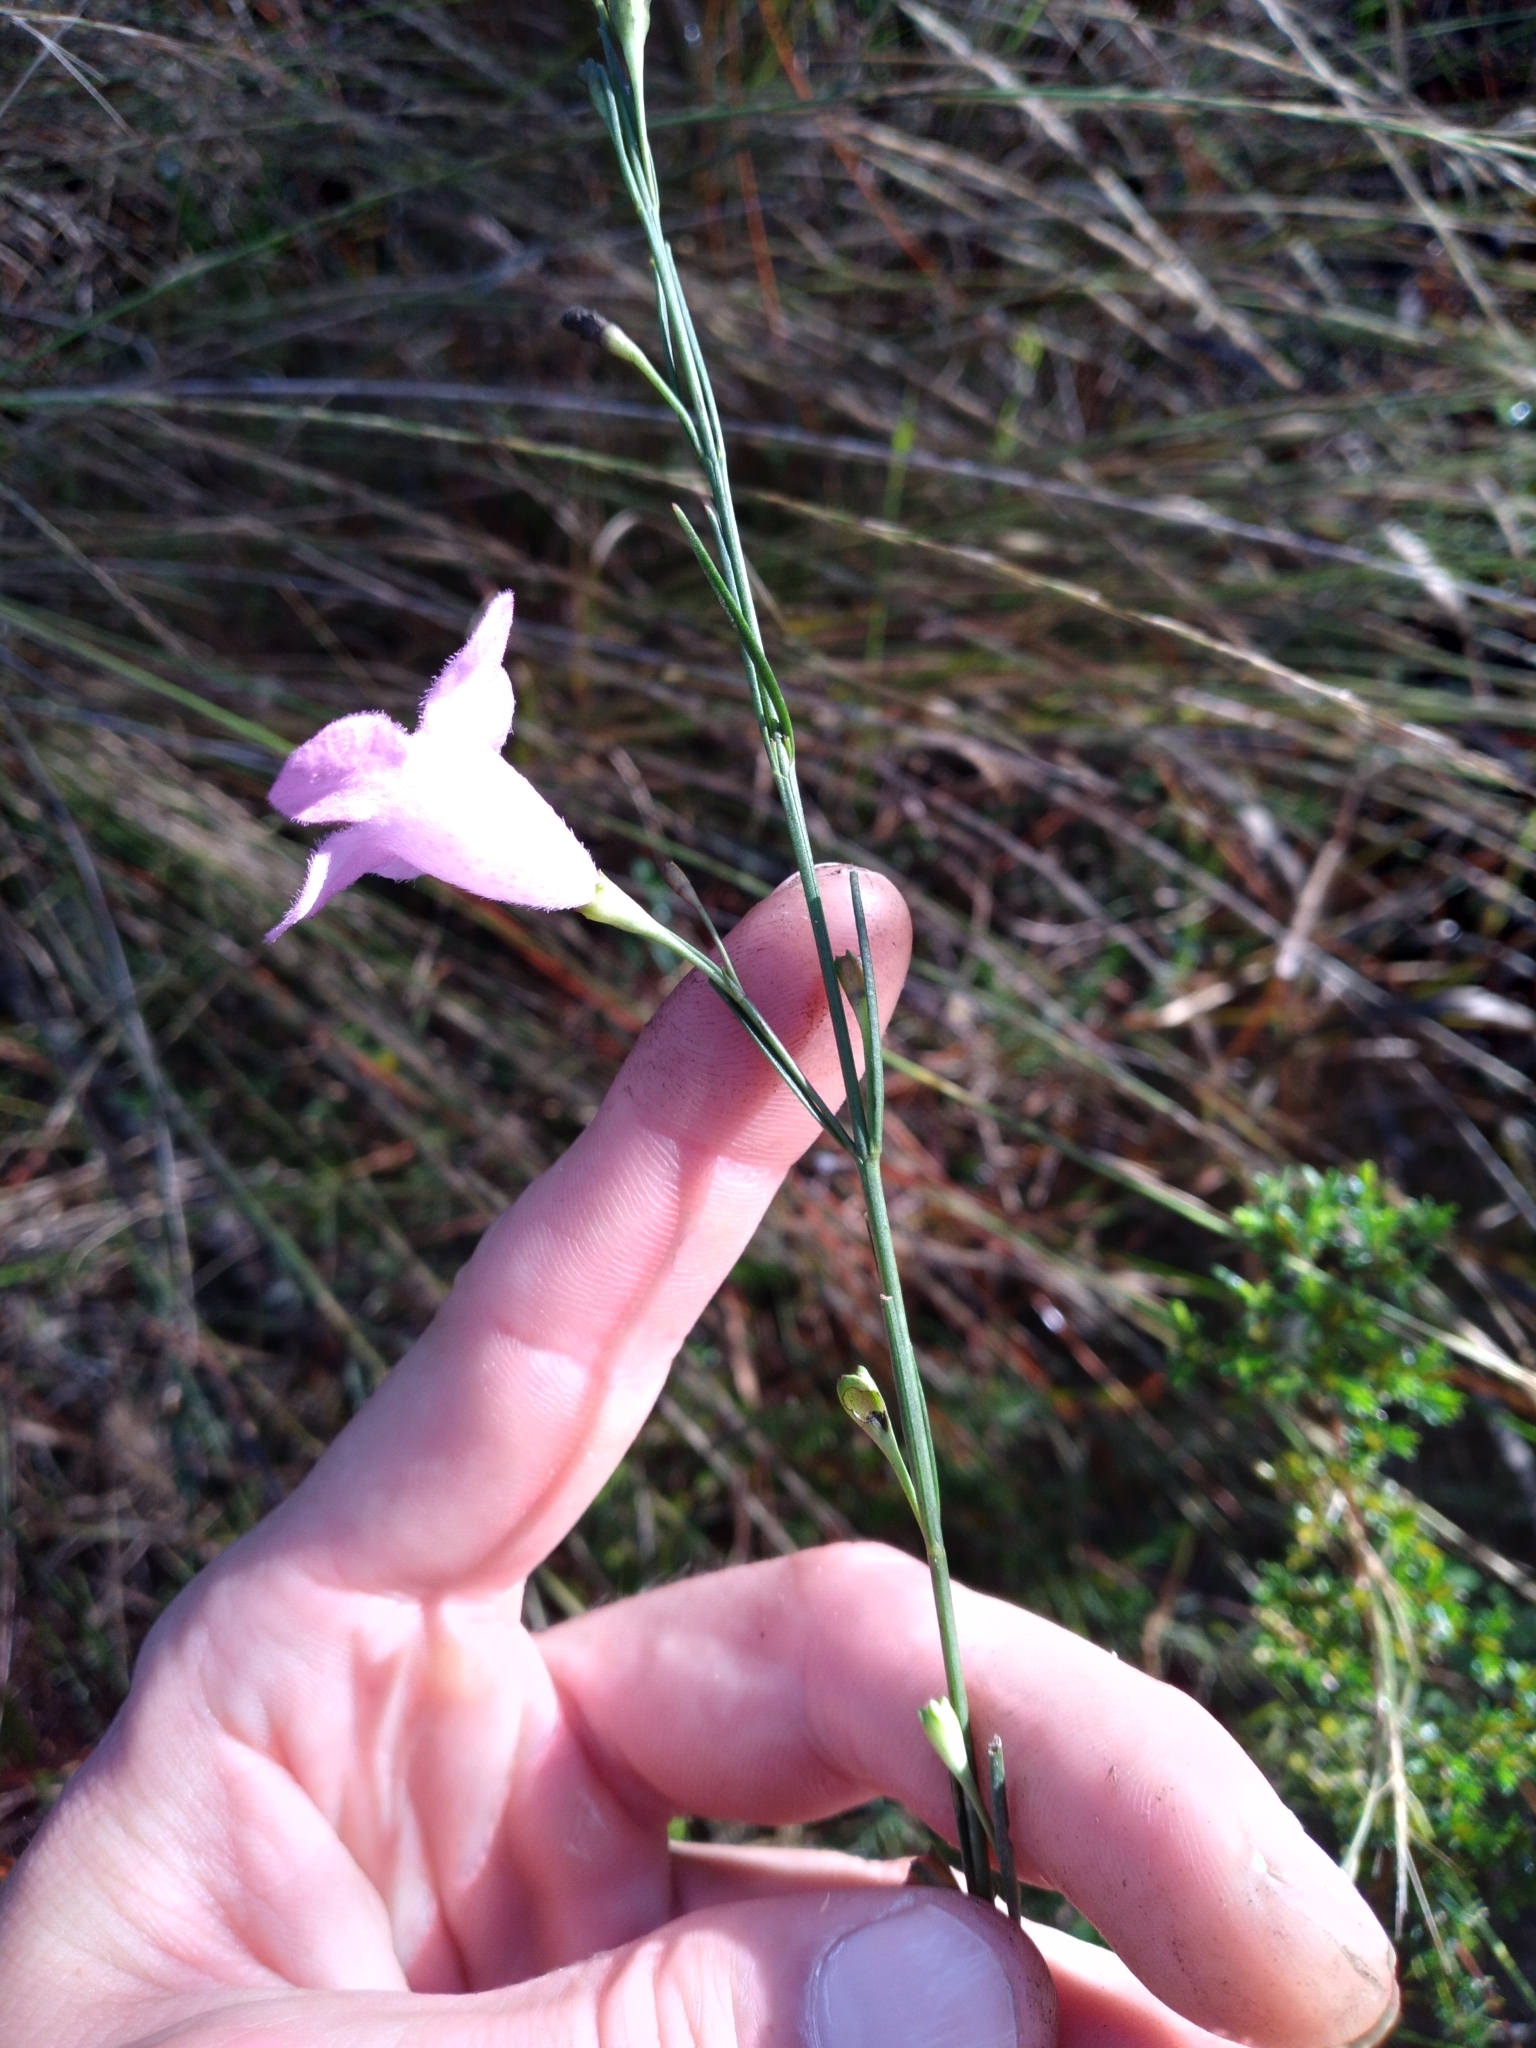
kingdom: Plantae
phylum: Tracheophyta
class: Magnoliopsida
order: Lamiales
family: Orobanchaceae
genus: Agalinis
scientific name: Agalinis linifolia
